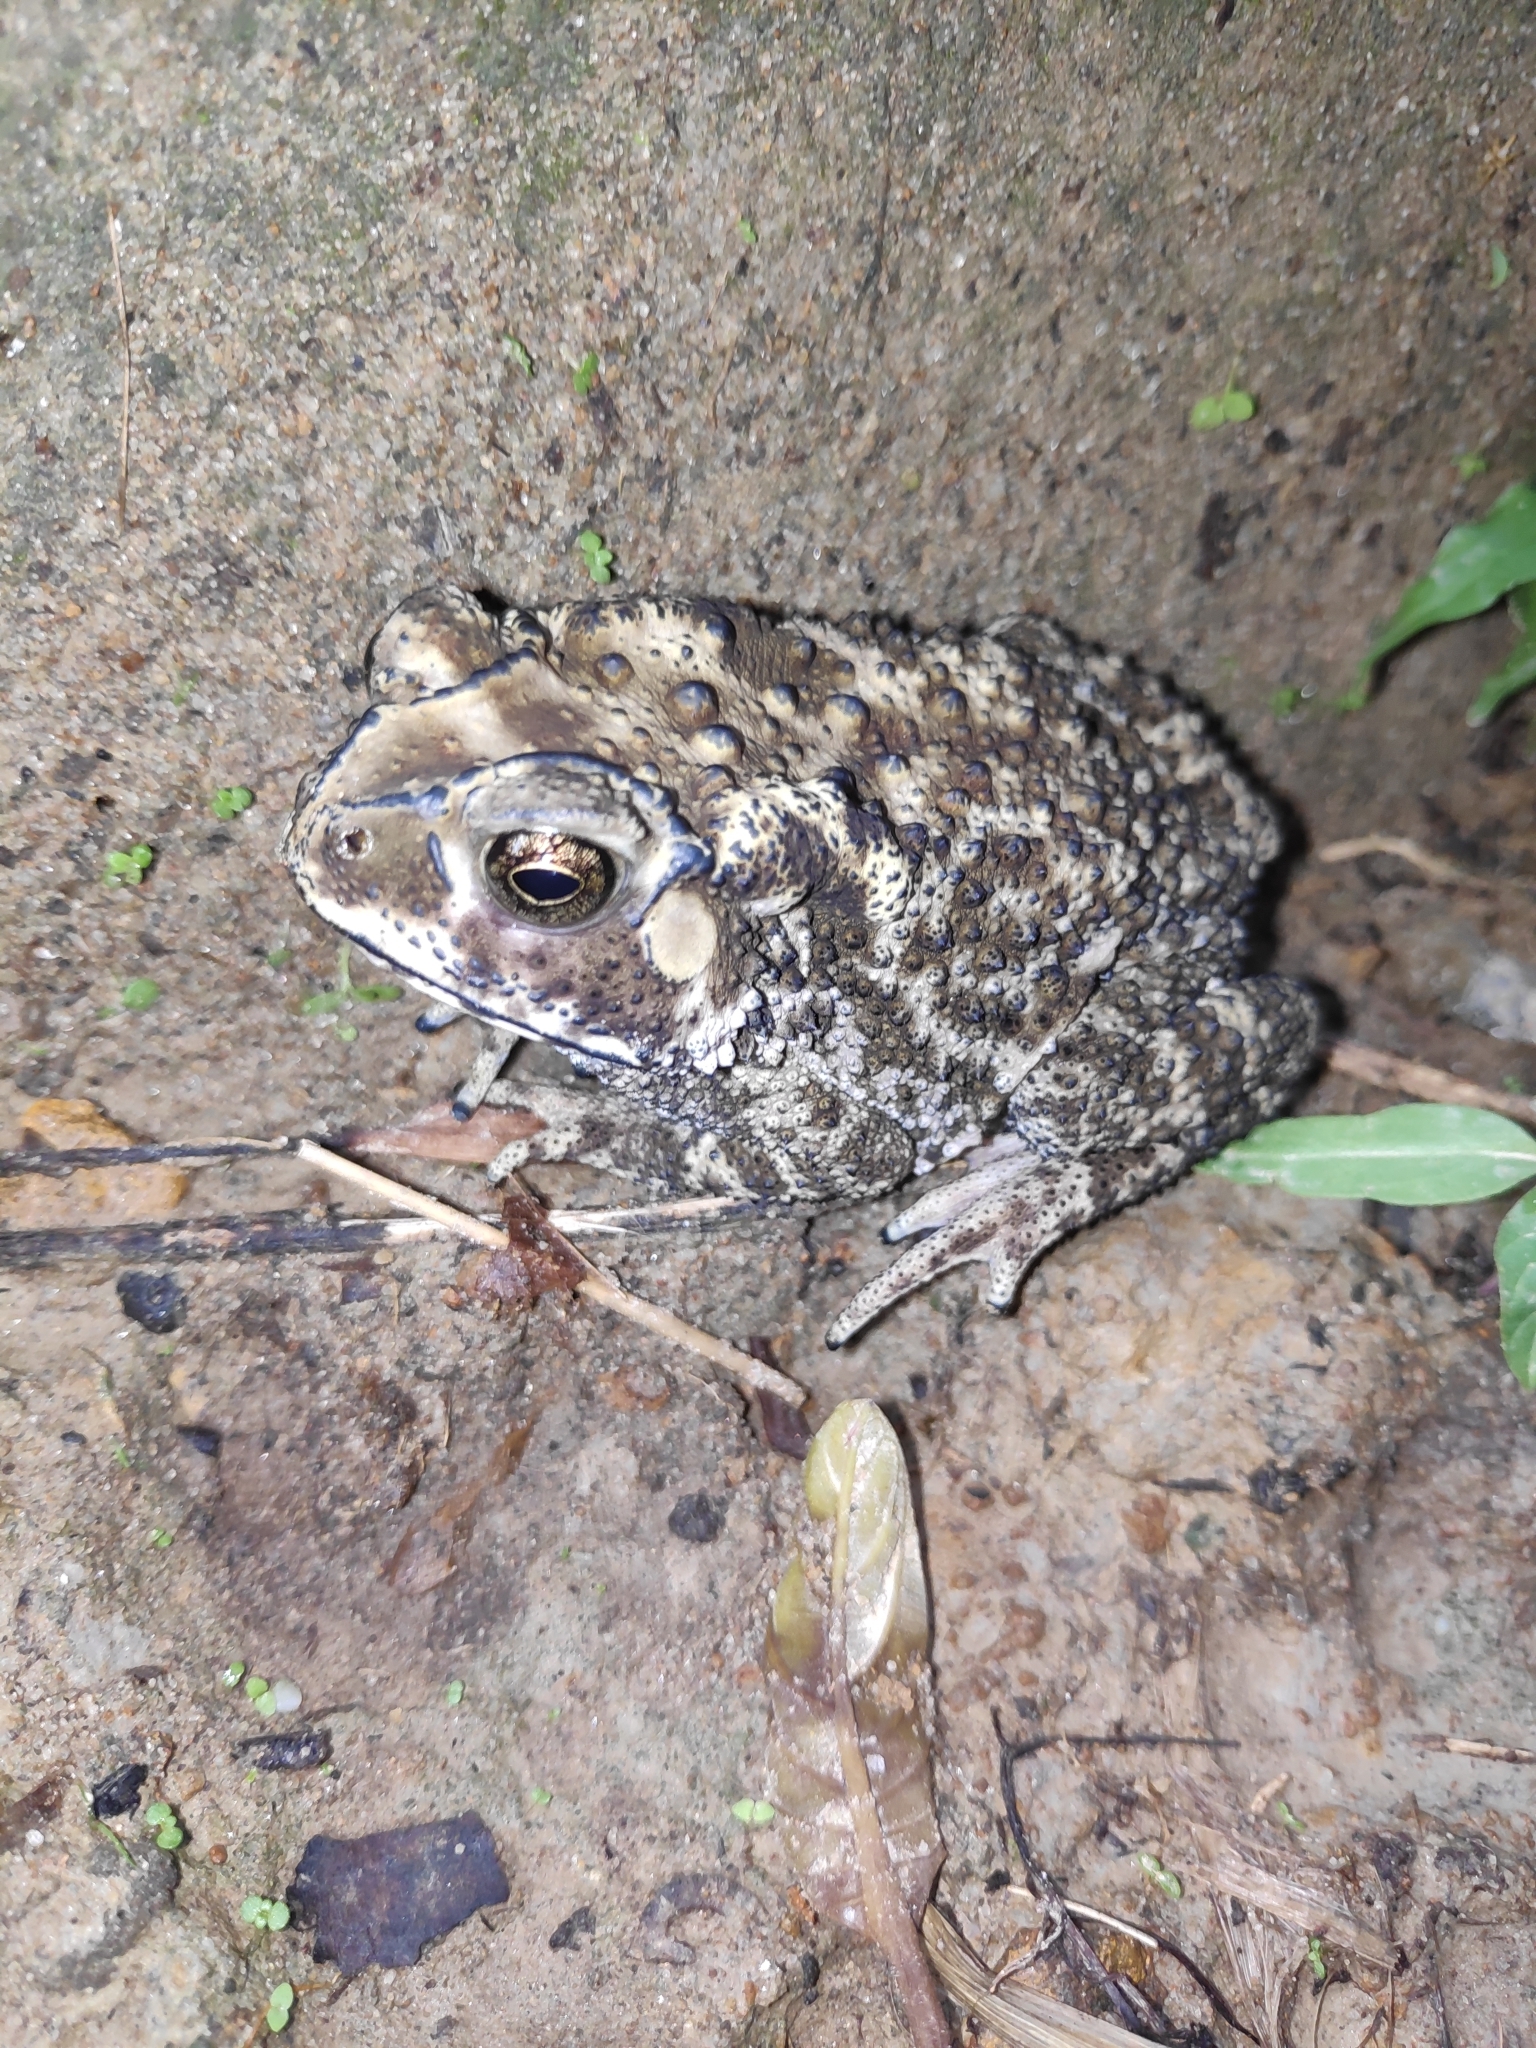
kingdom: Animalia
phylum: Chordata
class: Amphibia
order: Anura
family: Bufonidae
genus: Duttaphrynus
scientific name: Duttaphrynus melanostictus
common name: Common sunda toad
